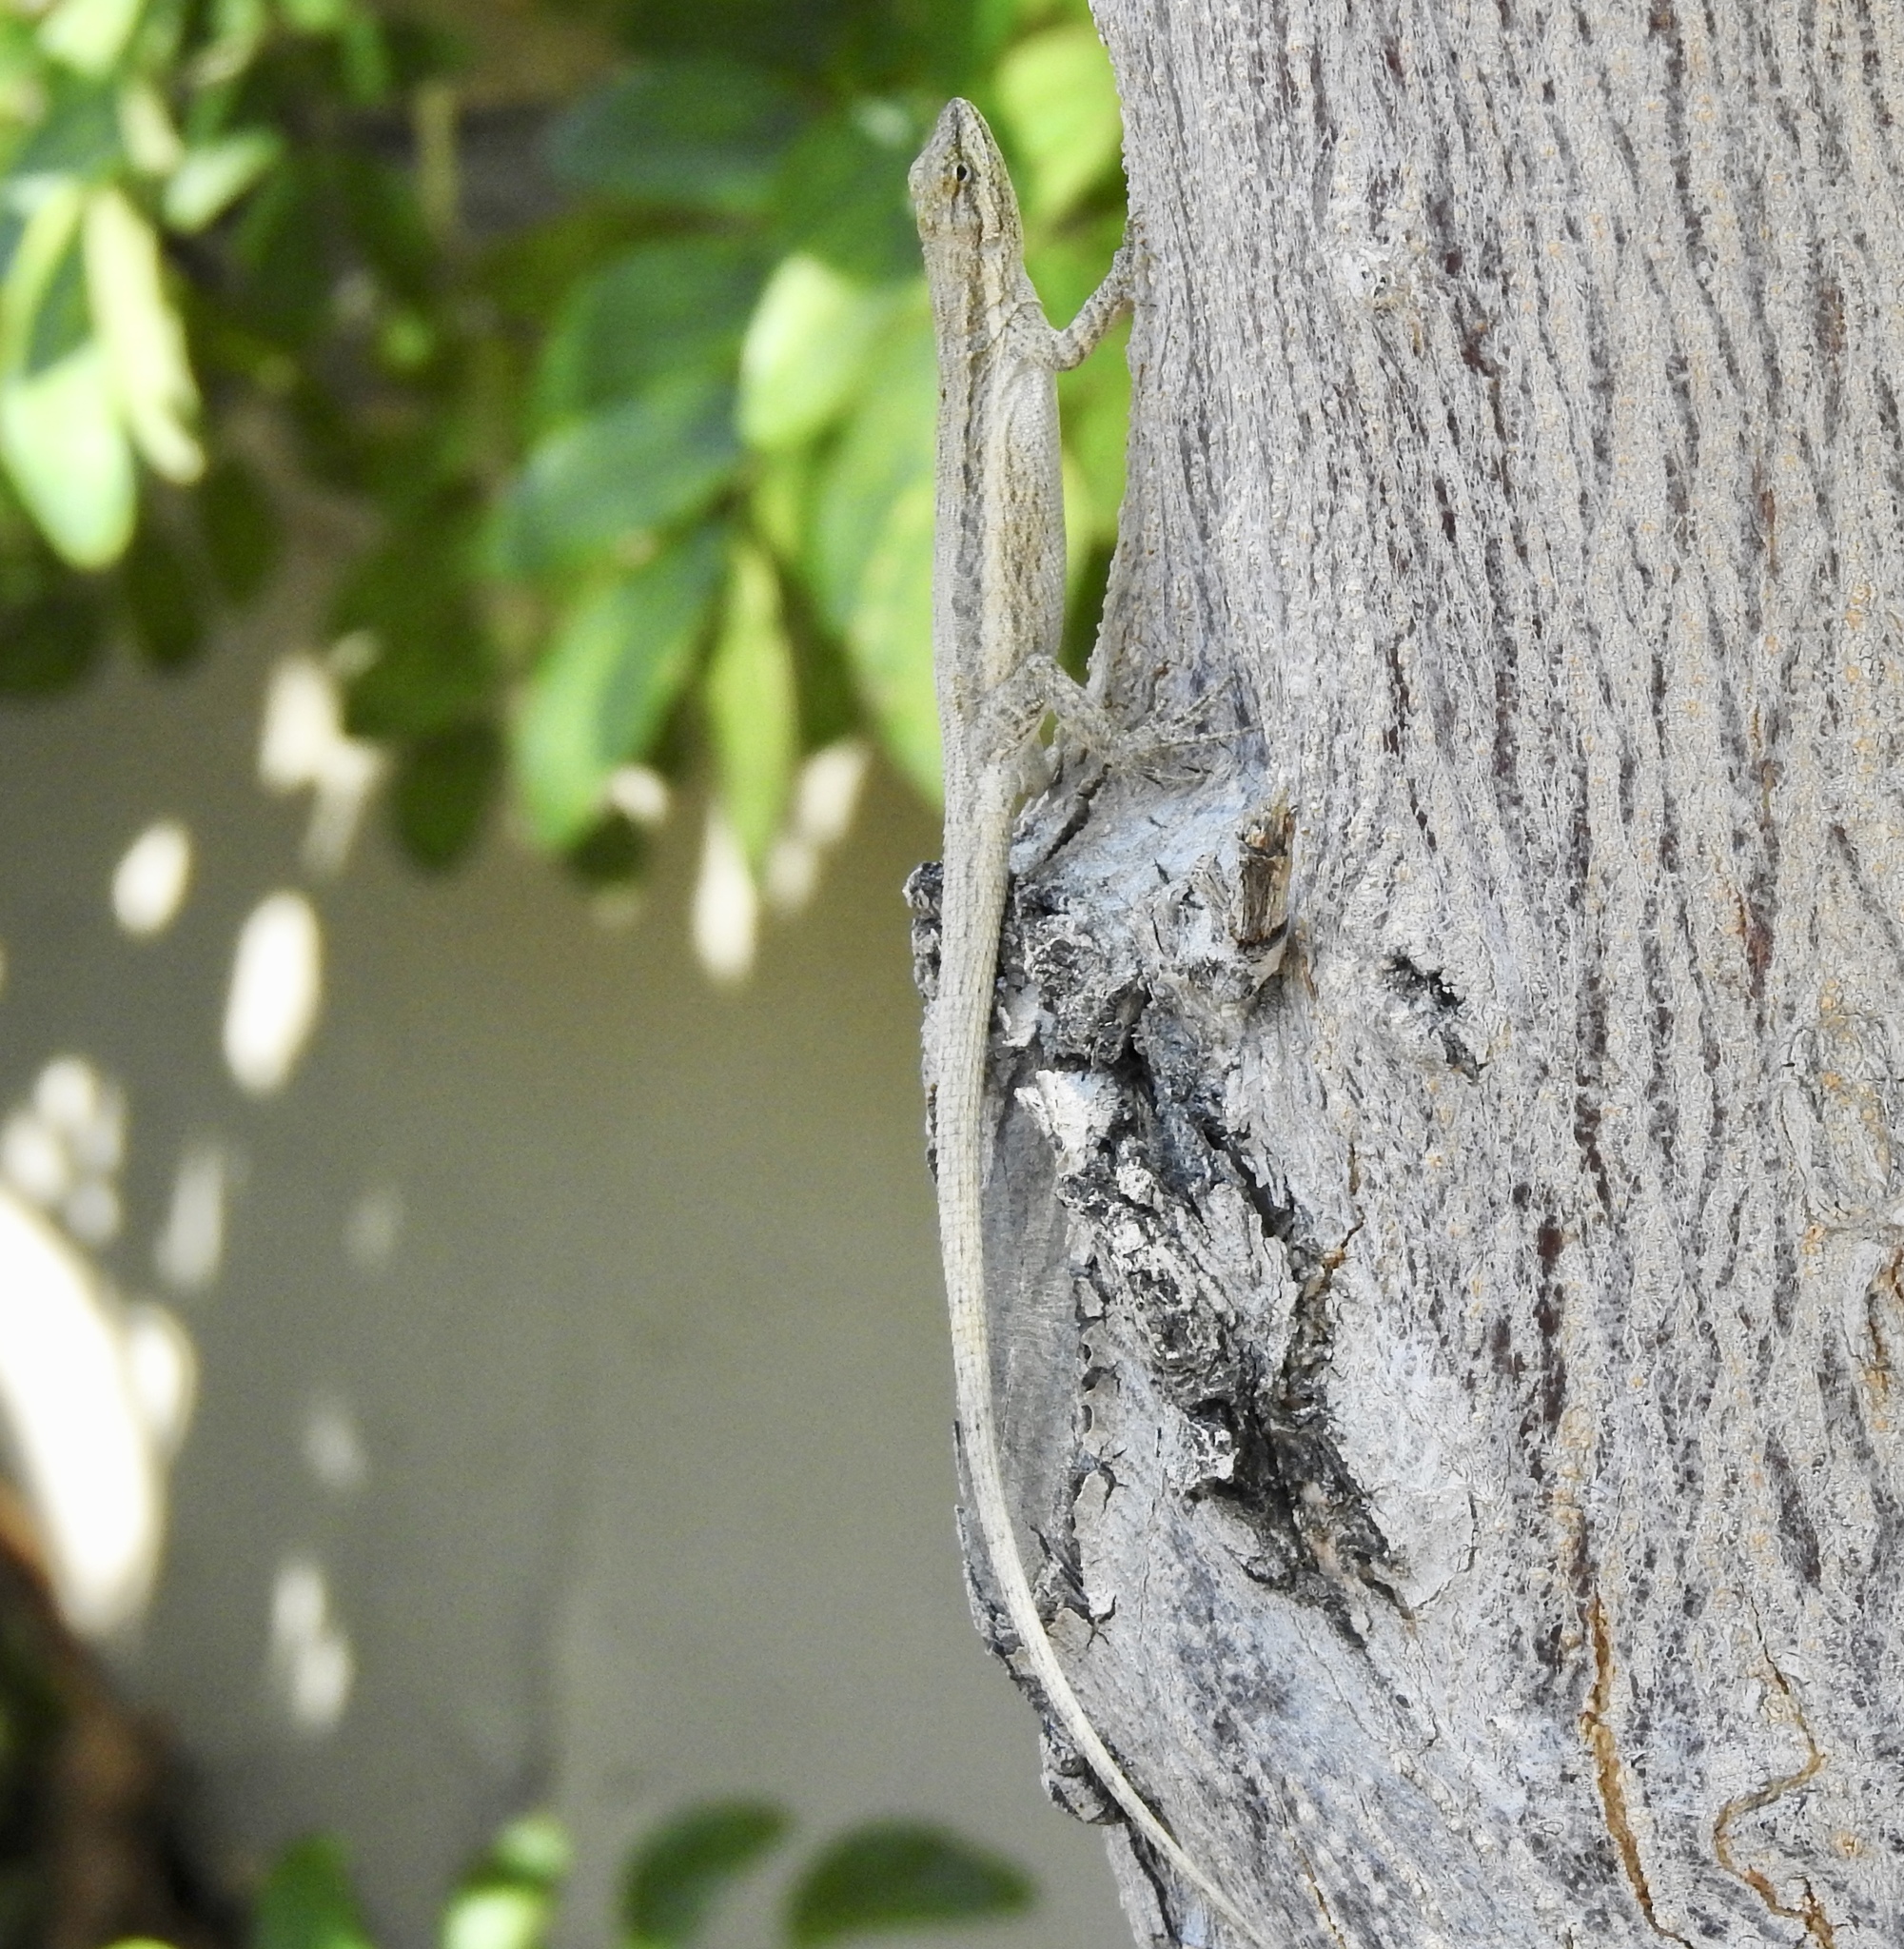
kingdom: Animalia
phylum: Chordata
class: Squamata
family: Phrynosomatidae
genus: Urosaurus
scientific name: Urosaurus graciosus
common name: Long-tailed brush lizard
